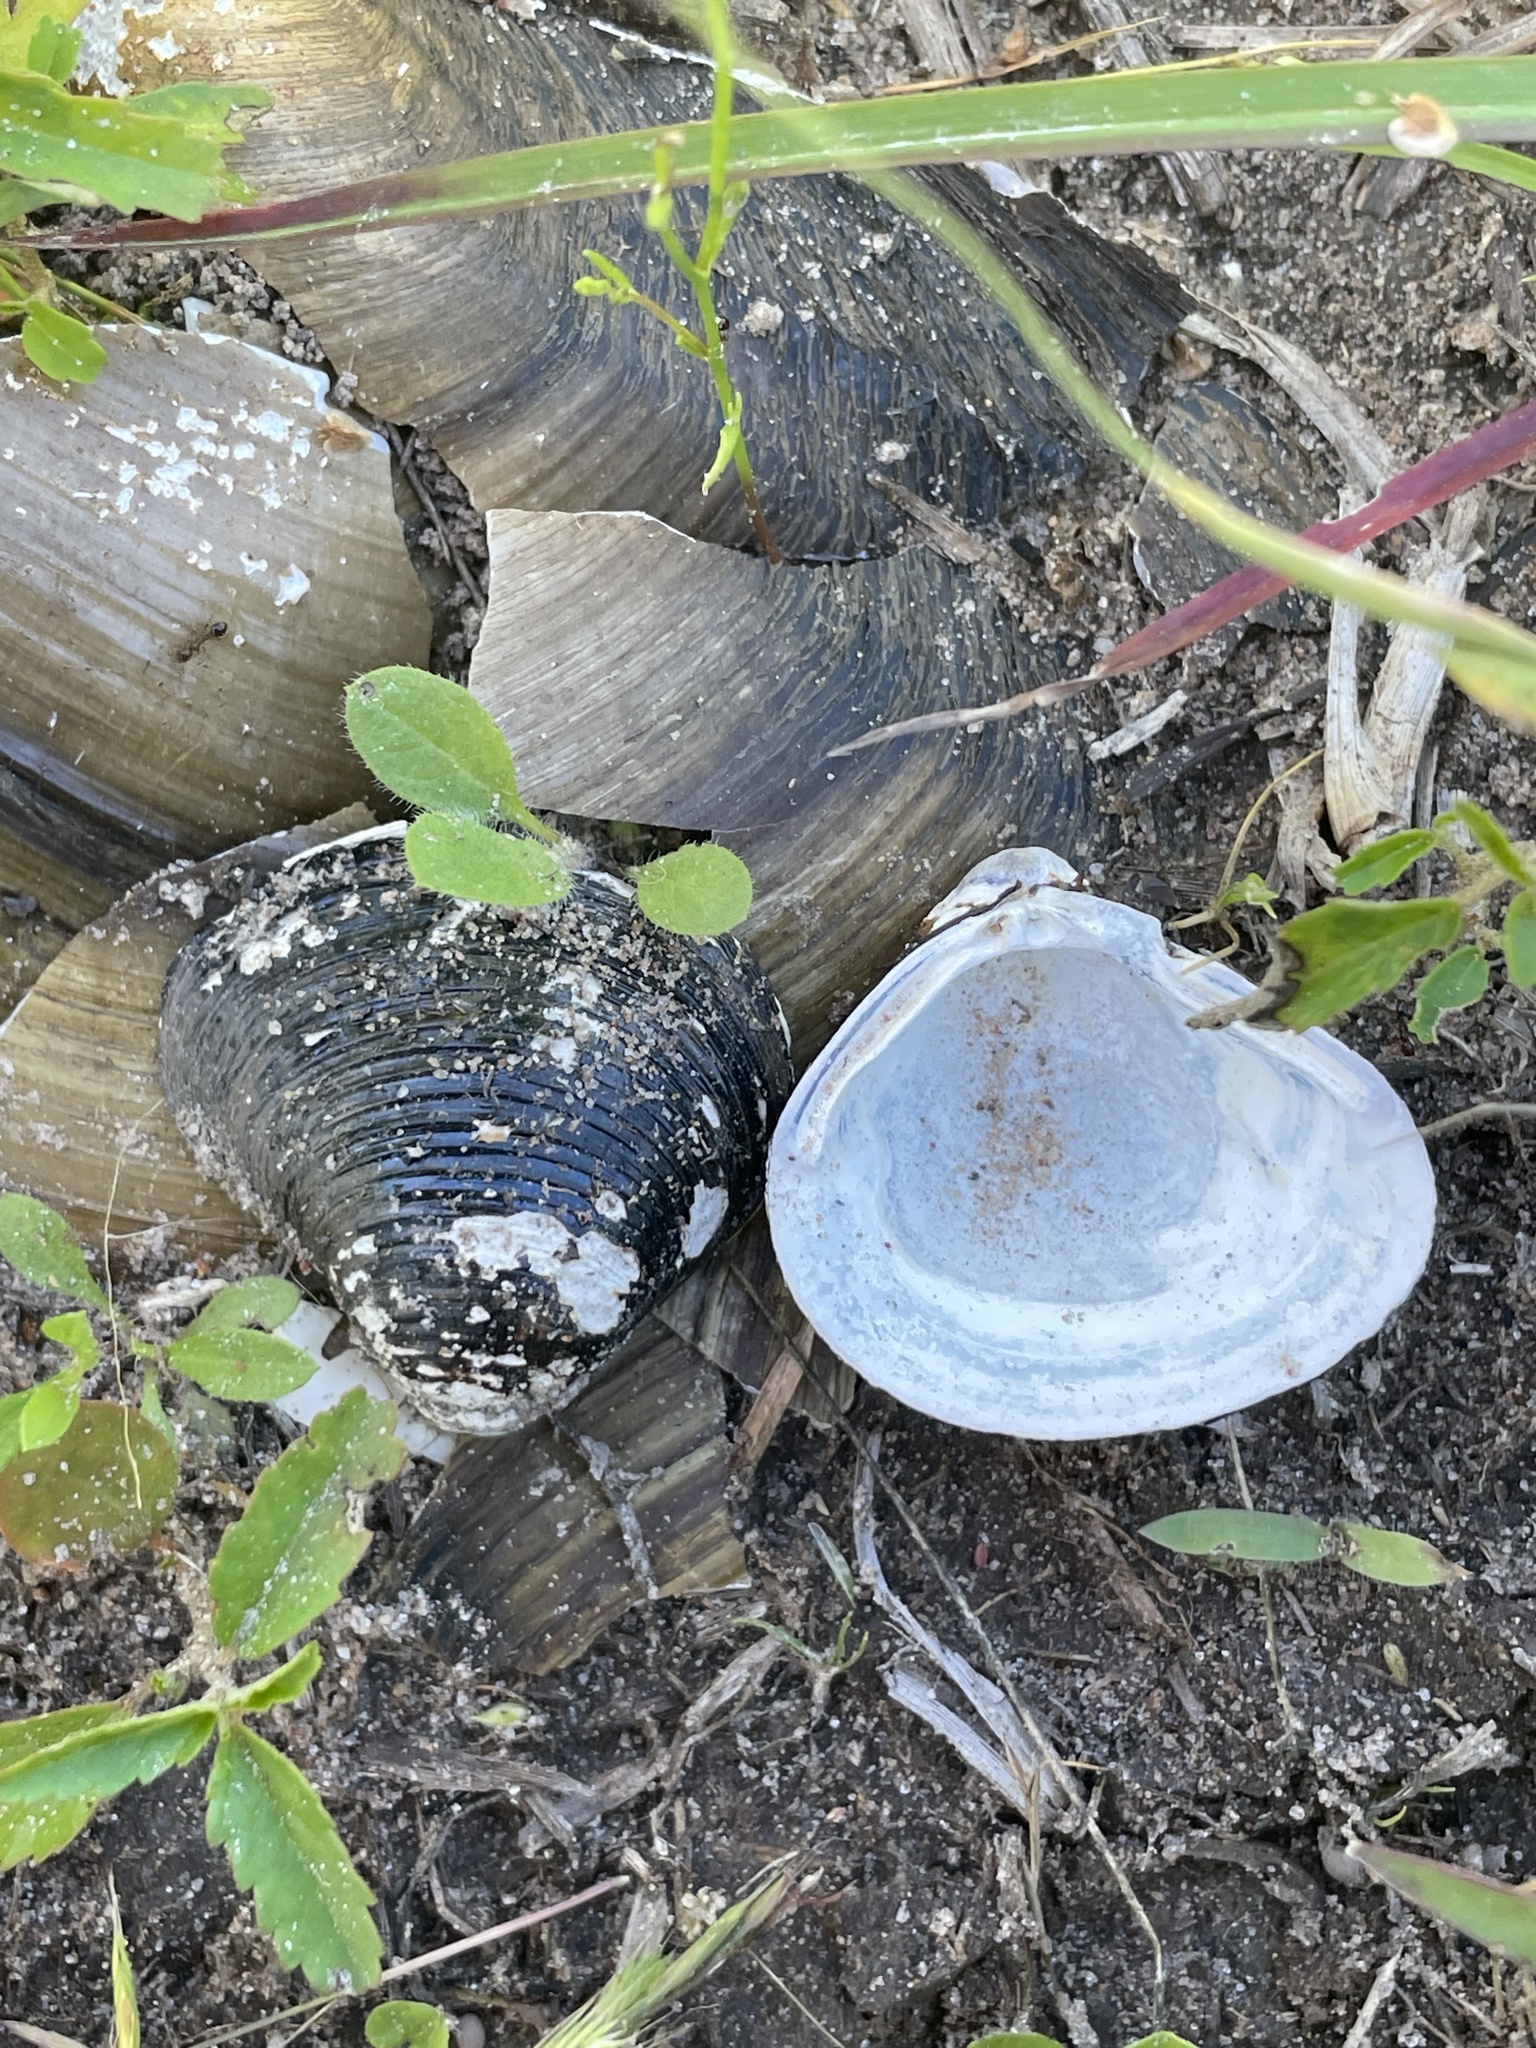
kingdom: Animalia
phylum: Mollusca
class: Bivalvia
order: Venerida
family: Cyrenidae
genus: Corbicula
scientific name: Corbicula fluminea
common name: Asian clam
